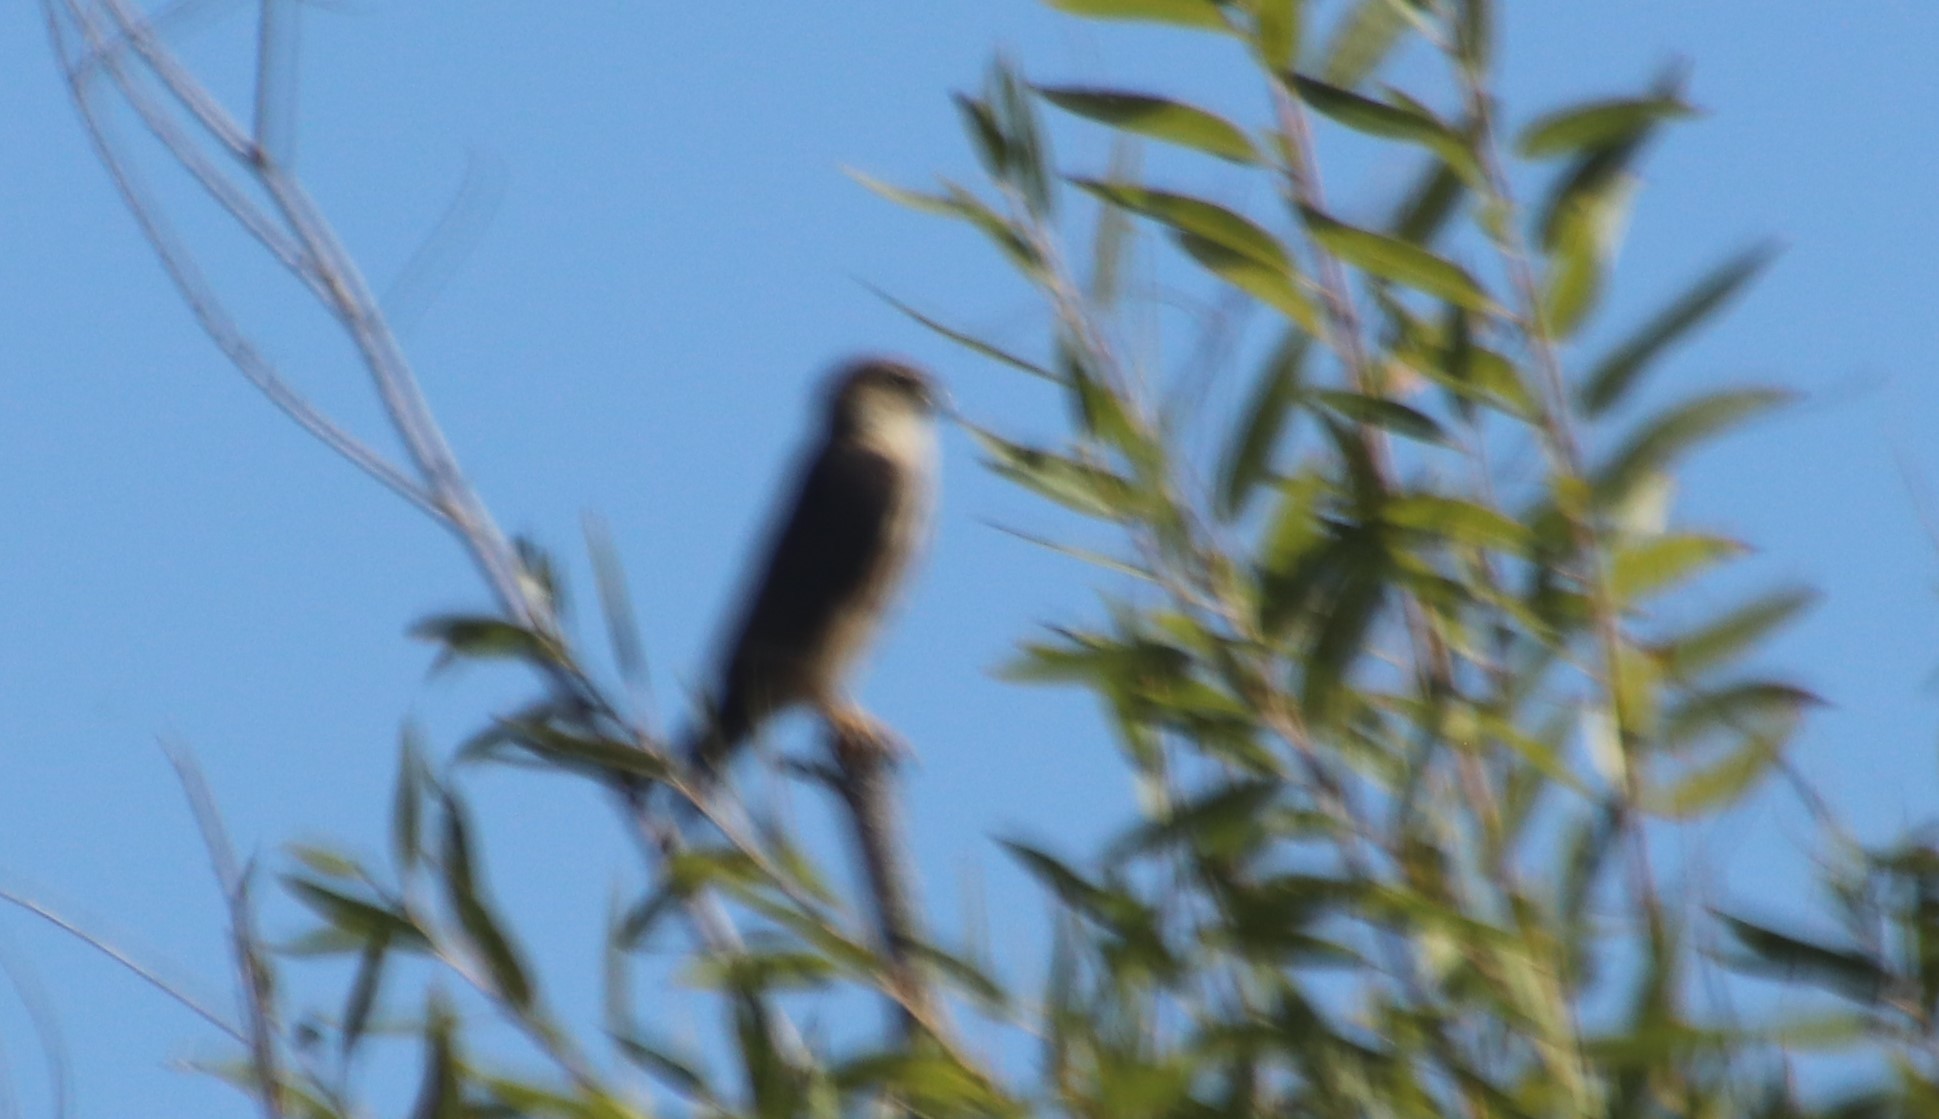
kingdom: Animalia
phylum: Chordata
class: Aves
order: Falconiformes
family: Falconidae
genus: Falco
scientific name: Falco columbarius
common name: Merlin
